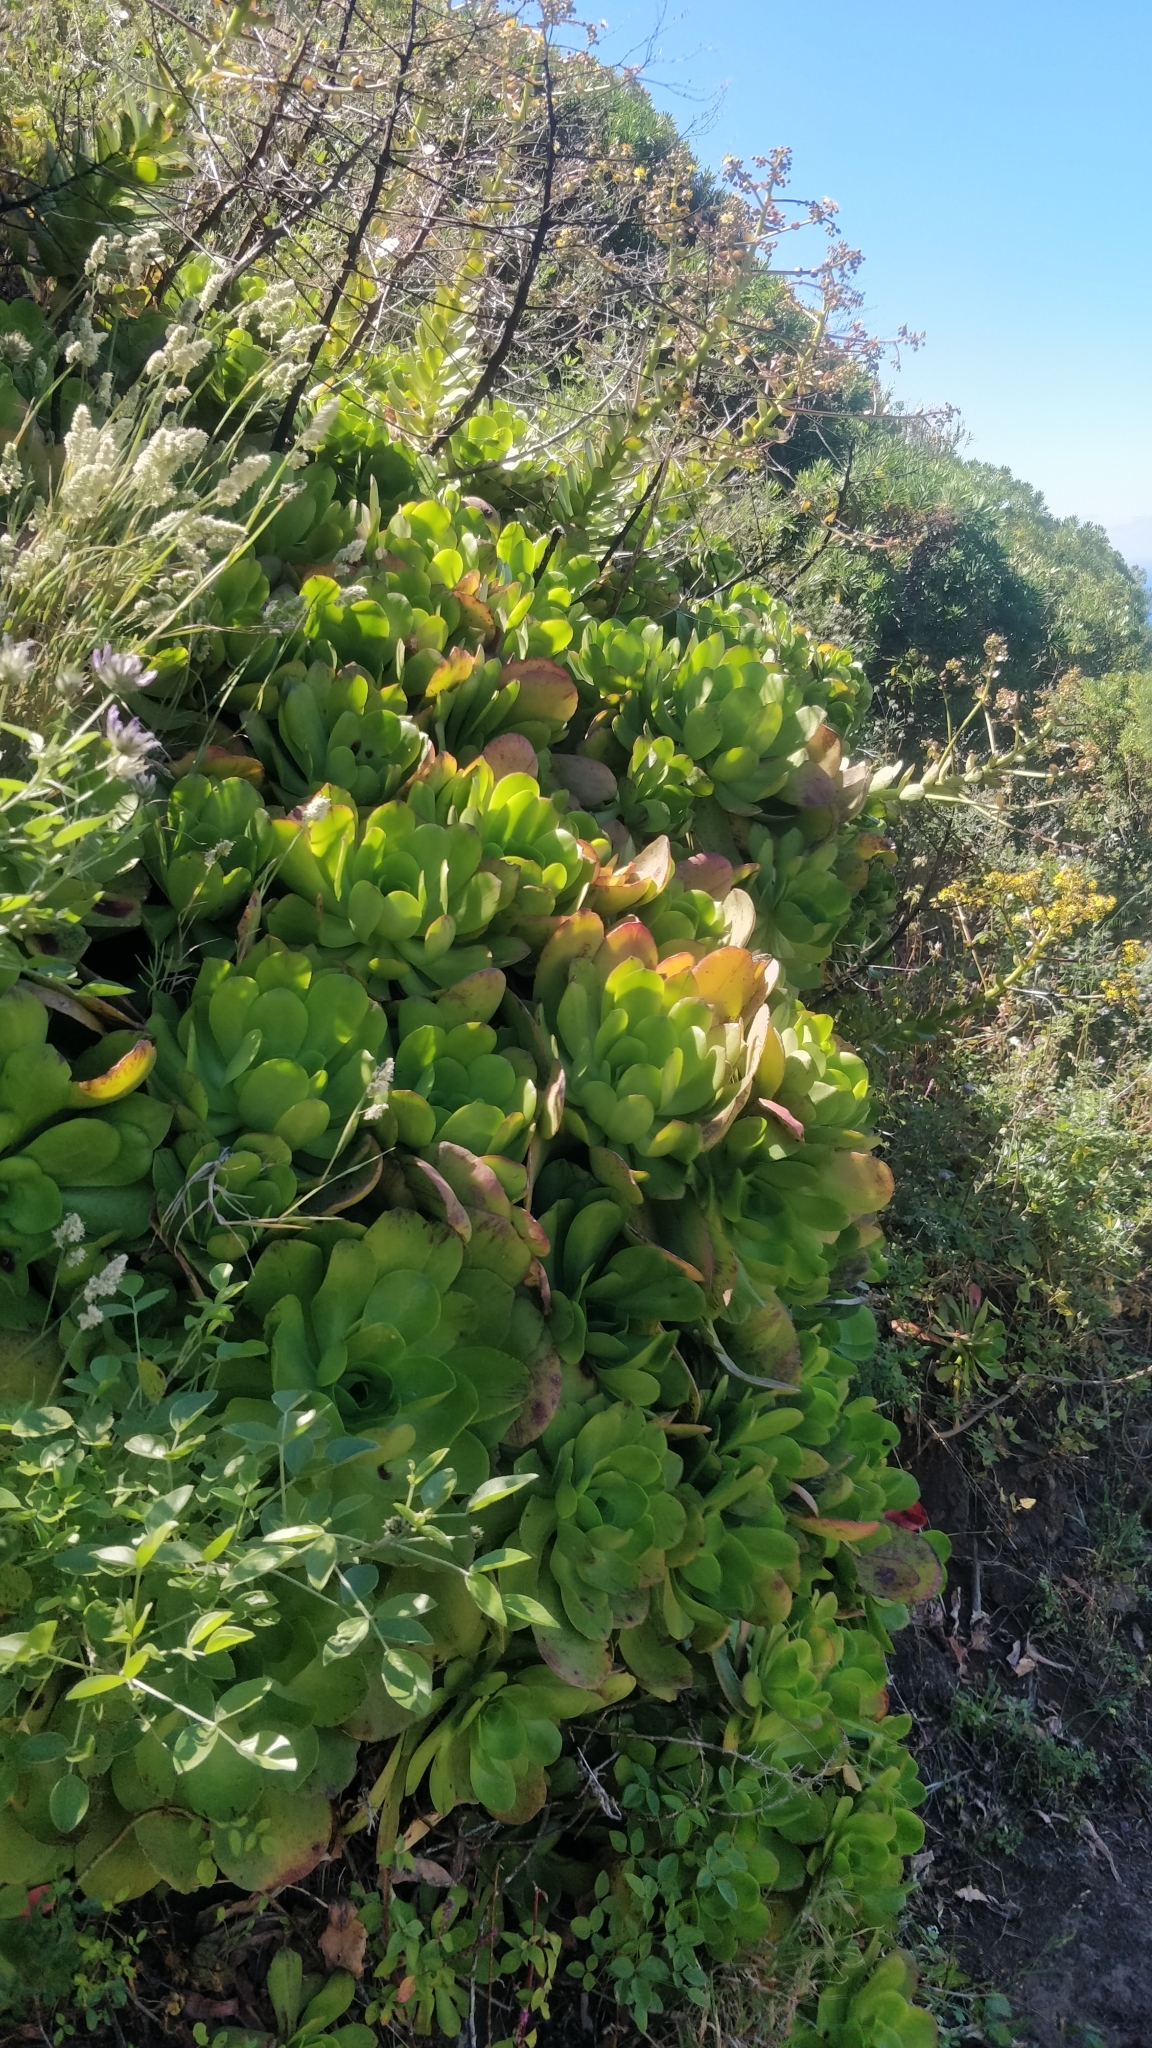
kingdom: Plantae
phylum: Tracheophyta
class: Magnoliopsida
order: Saxifragales
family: Crassulaceae
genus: Aeonium
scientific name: Aeonium glutinosum
